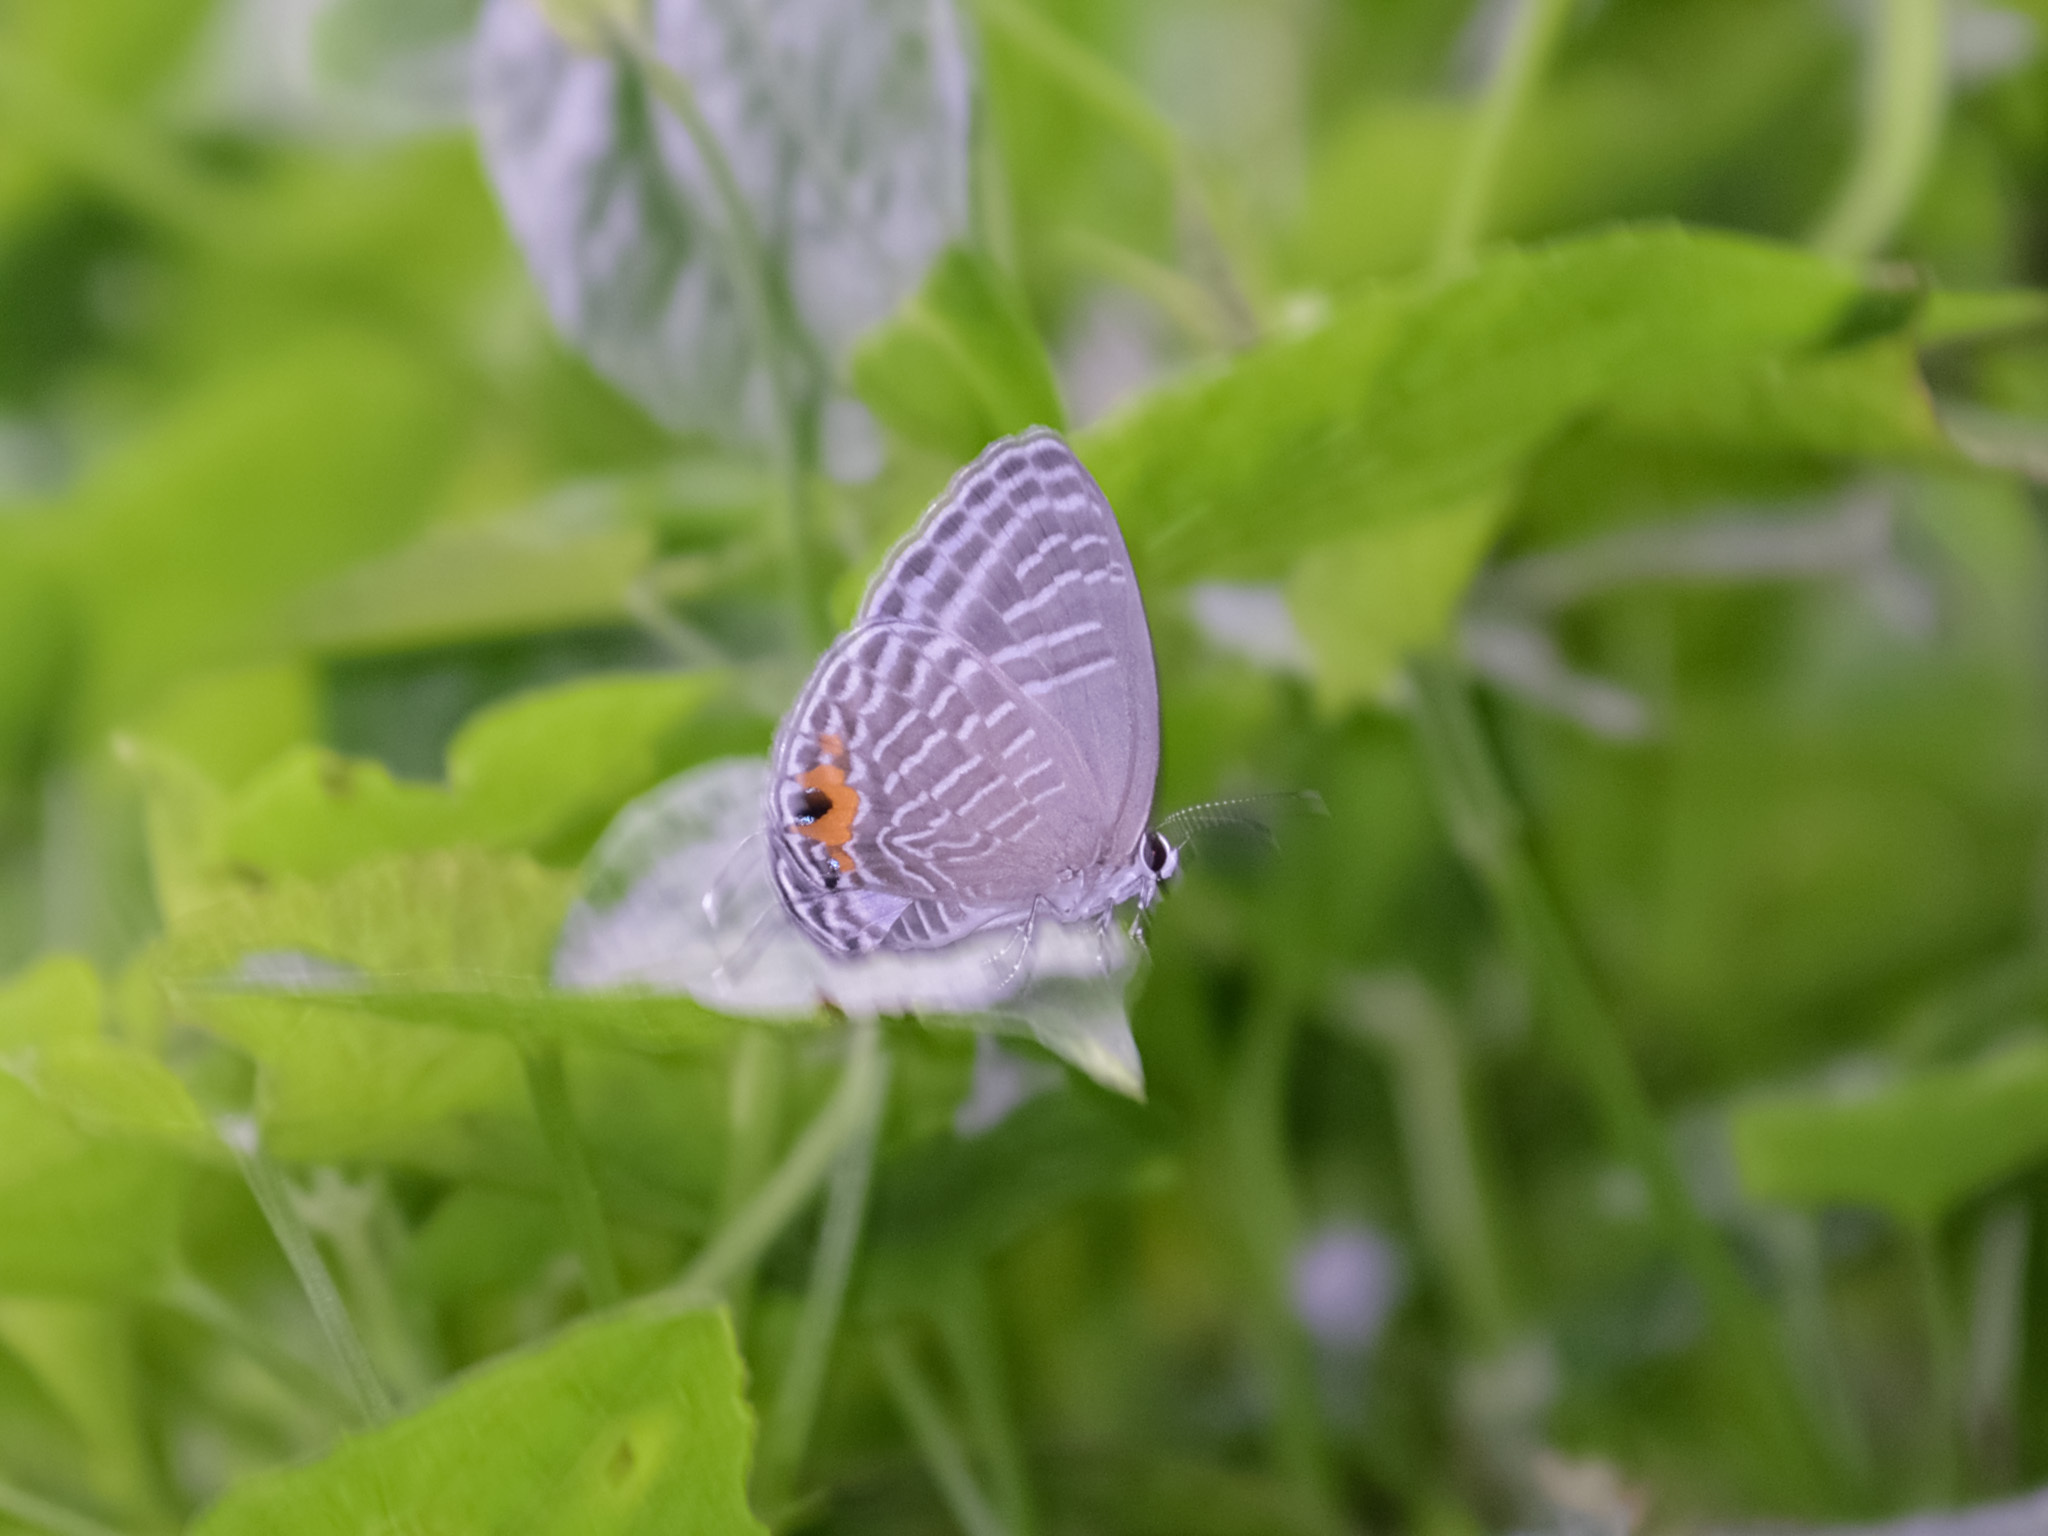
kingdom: Animalia
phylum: Arthropoda
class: Insecta
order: Lepidoptera
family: Lycaenidae
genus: Jamides
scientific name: Jamides alecto
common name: Metallic cerulean
